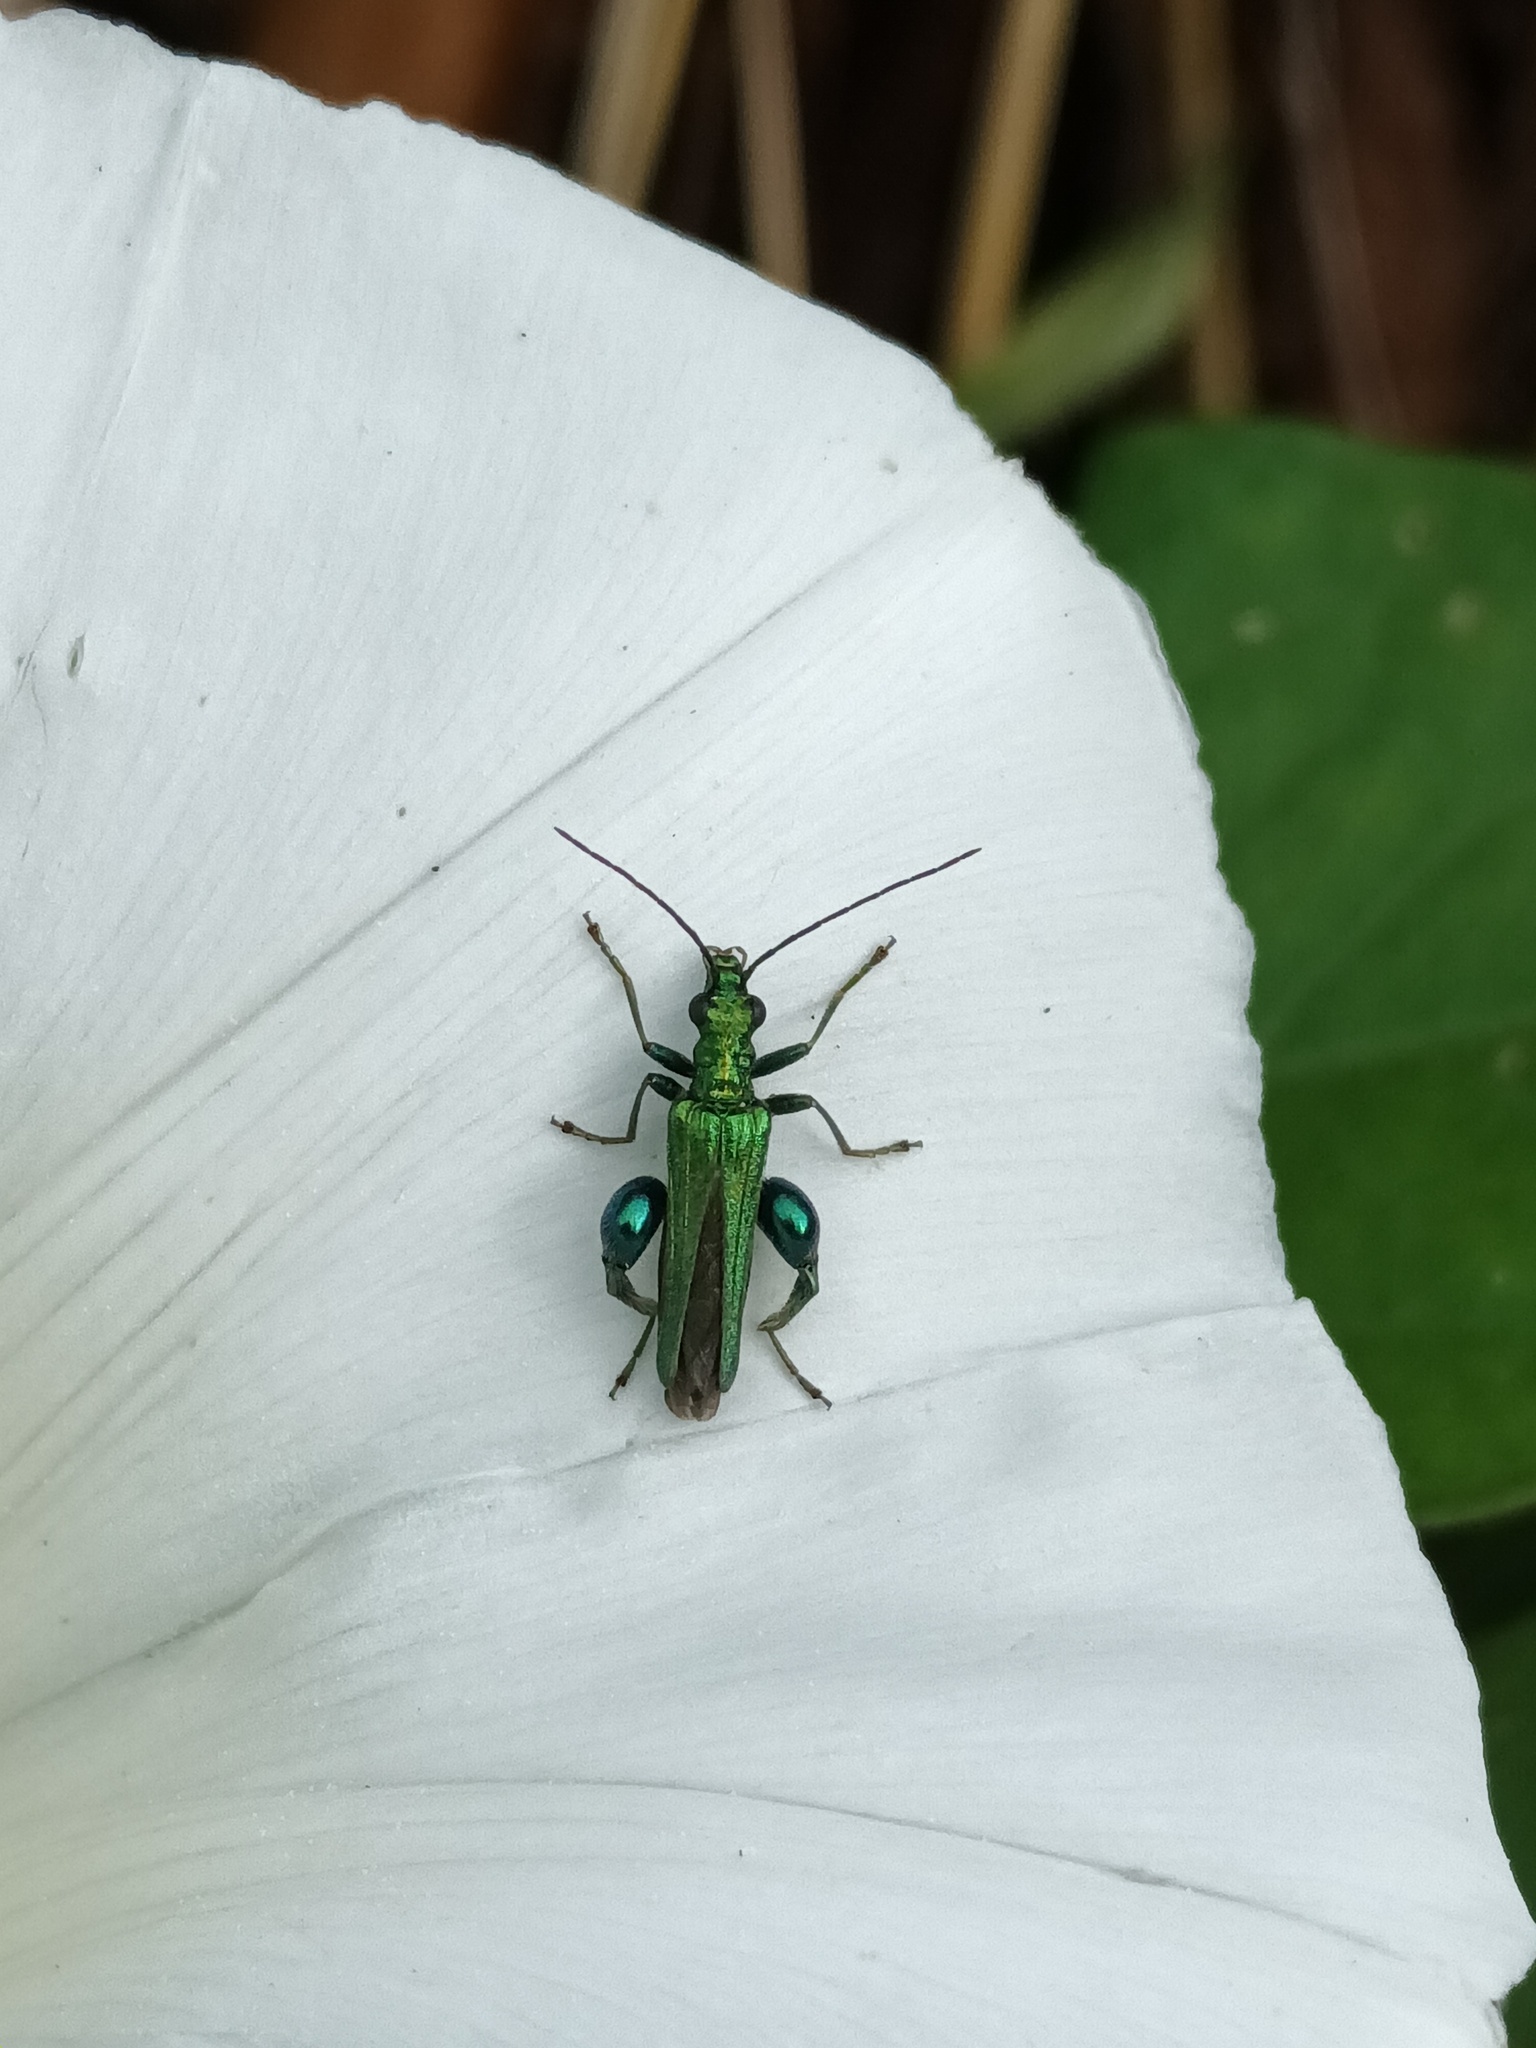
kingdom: Animalia
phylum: Arthropoda
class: Insecta
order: Coleoptera
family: Oedemeridae
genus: Oedemera
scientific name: Oedemera nobilis
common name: Swollen-thighed beetle
